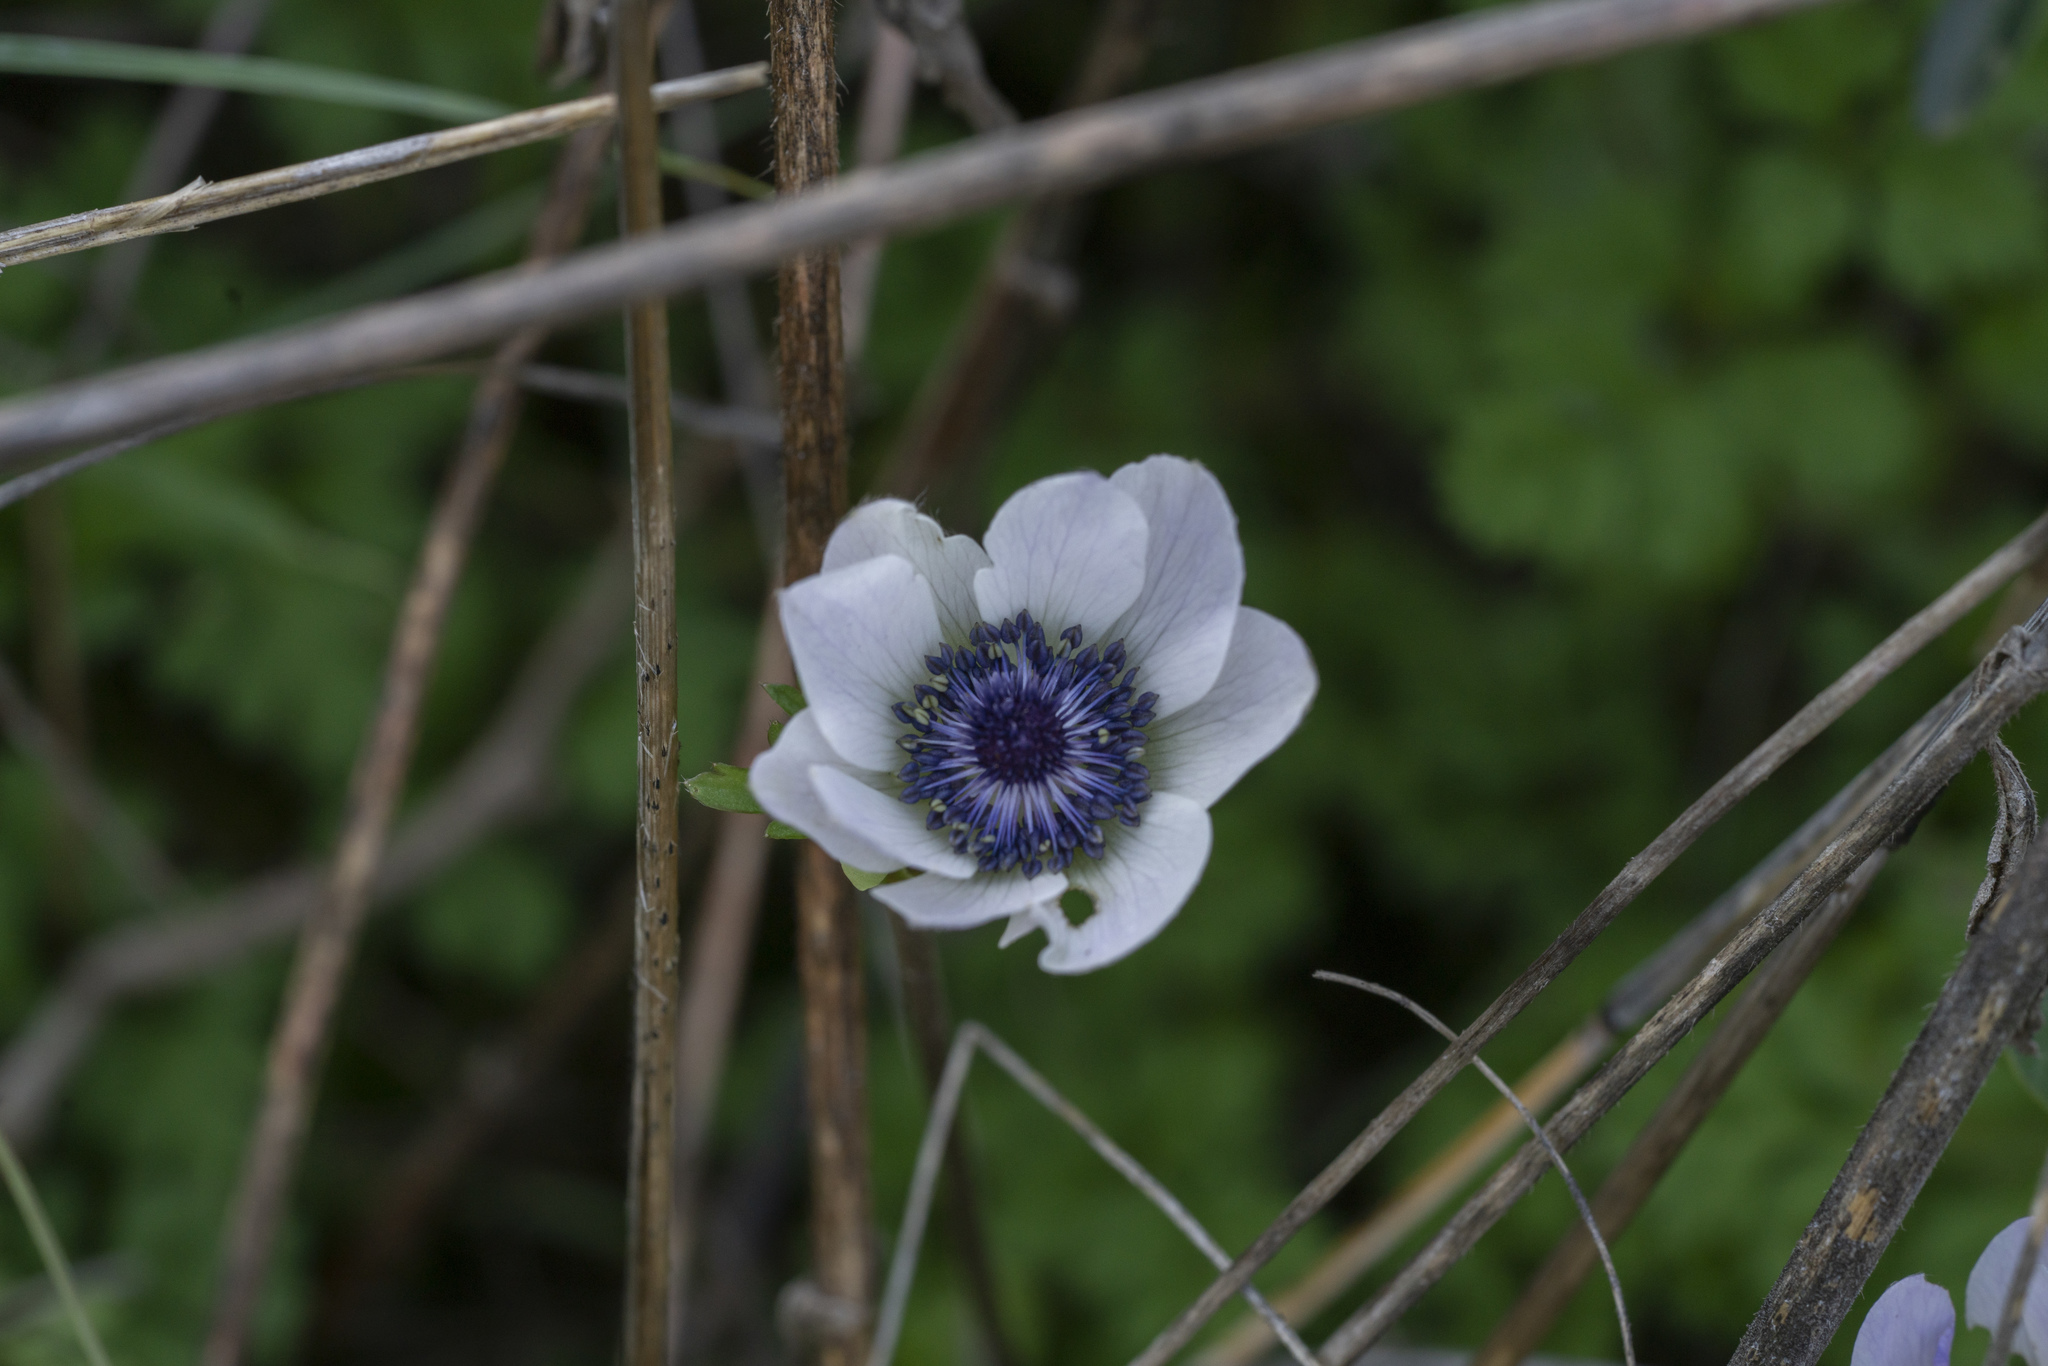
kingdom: Plantae
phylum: Tracheophyta
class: Magnoliopsida
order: Ranunculales
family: Ranunculaceae
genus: Anemone
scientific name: Anemone coronaria
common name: Poppy anemone
